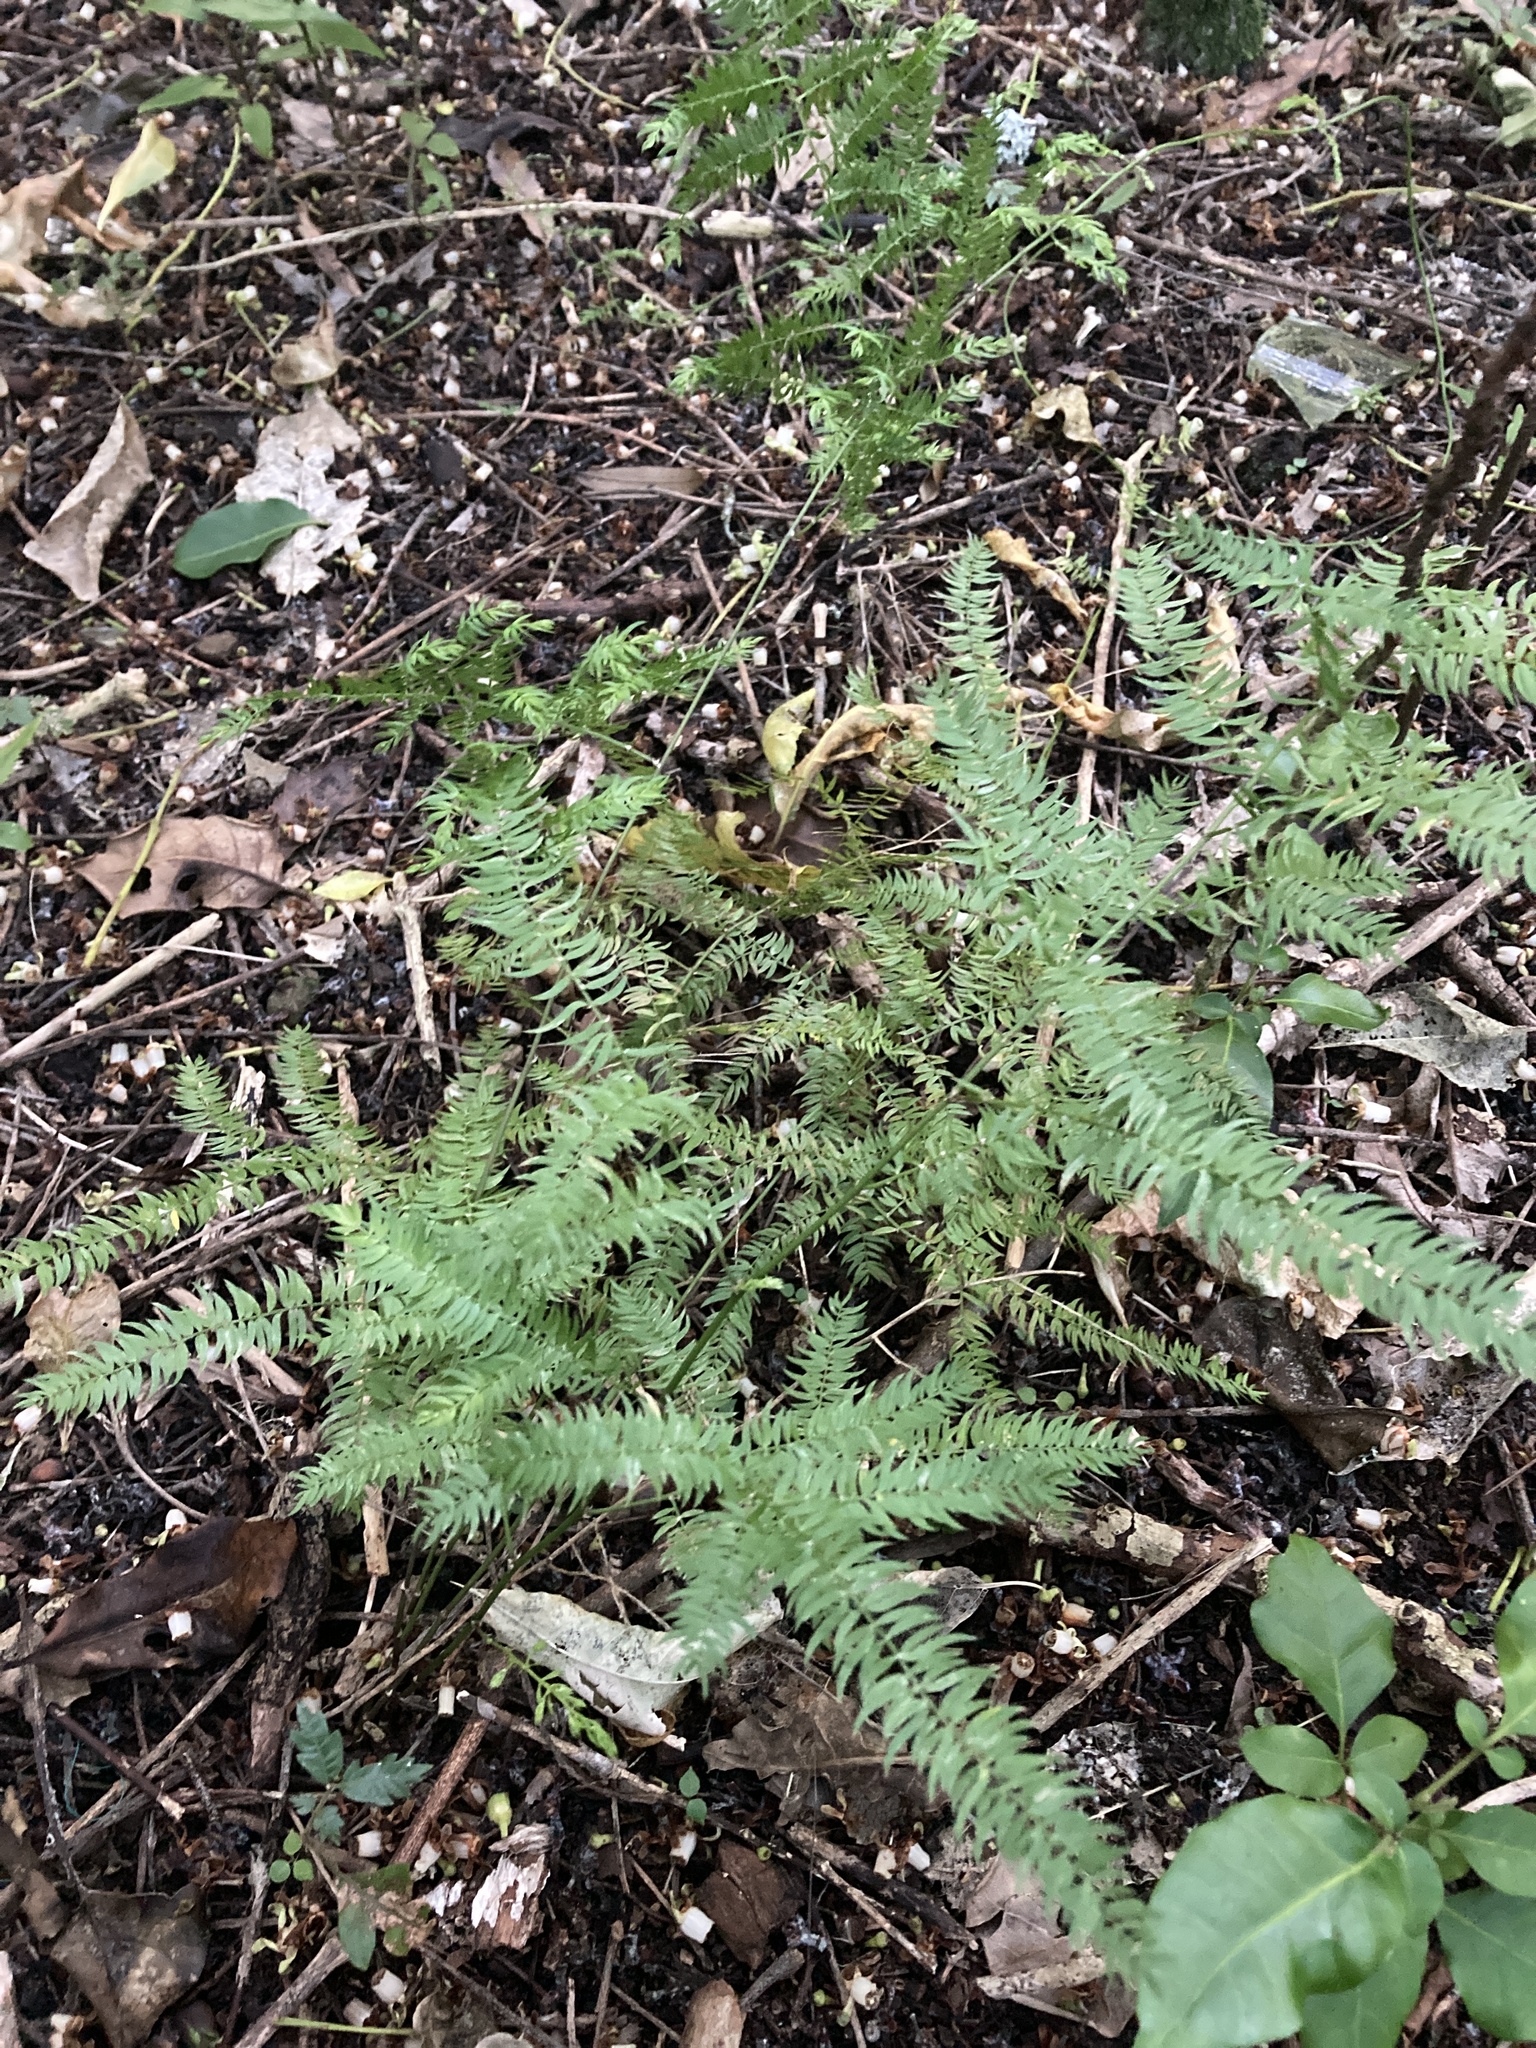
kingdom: Plantae
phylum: Tracheophyta
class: Liliopsida
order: Asparagales
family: Asparagaceae
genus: Asparagus
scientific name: Asparagus scandens
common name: Asparagus-fern
